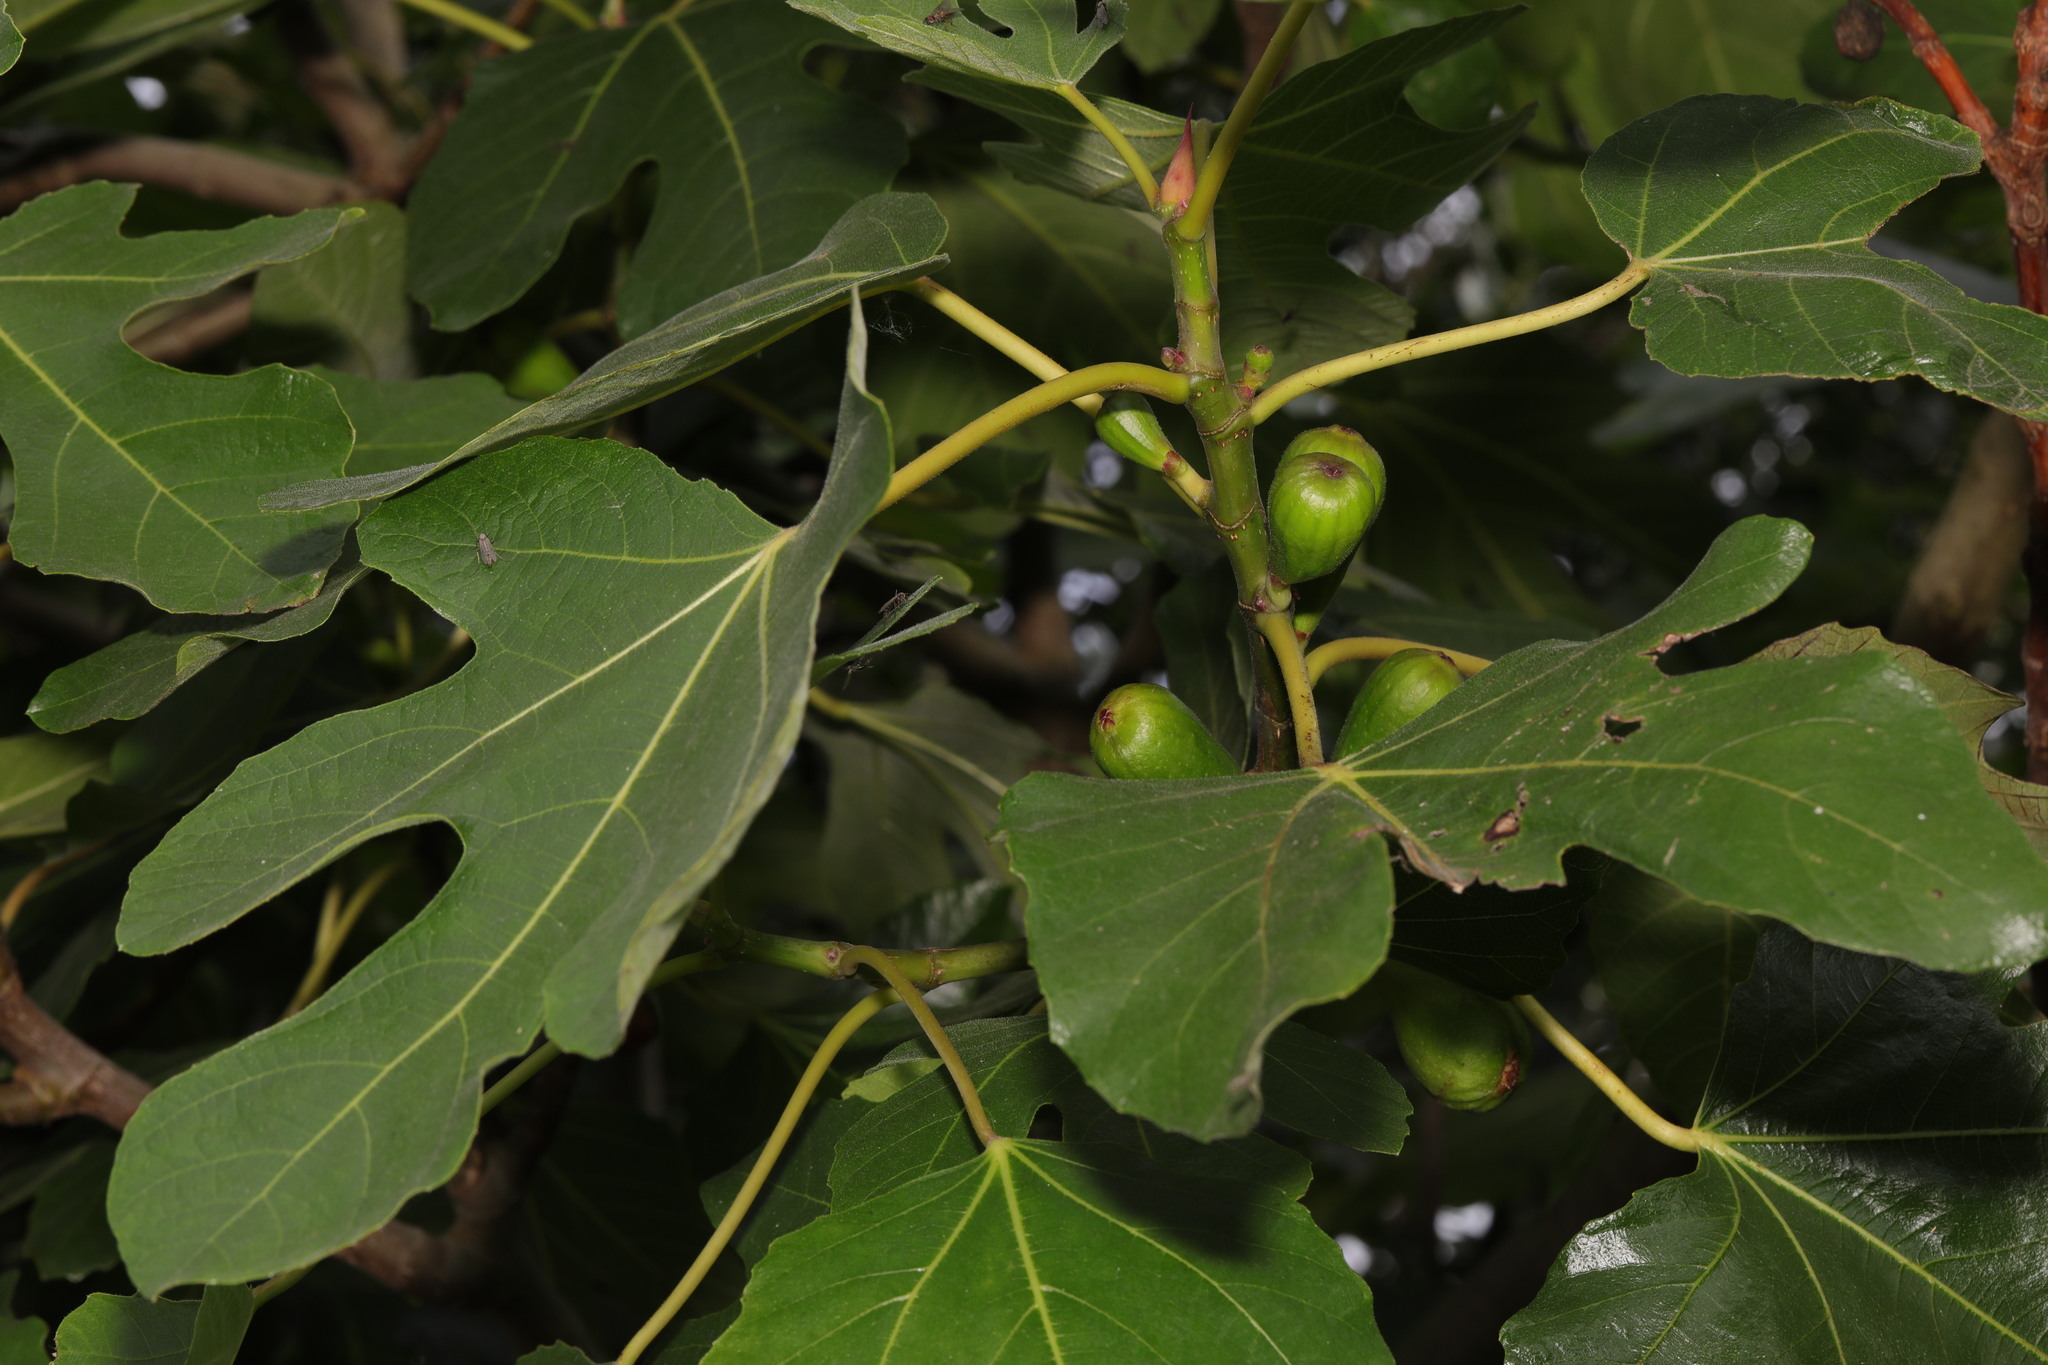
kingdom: Plantae
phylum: Tracheophyta
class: Magnoliopsida
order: Rosales
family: Moraceae
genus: Ficus
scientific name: Ficus carica
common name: Fig
